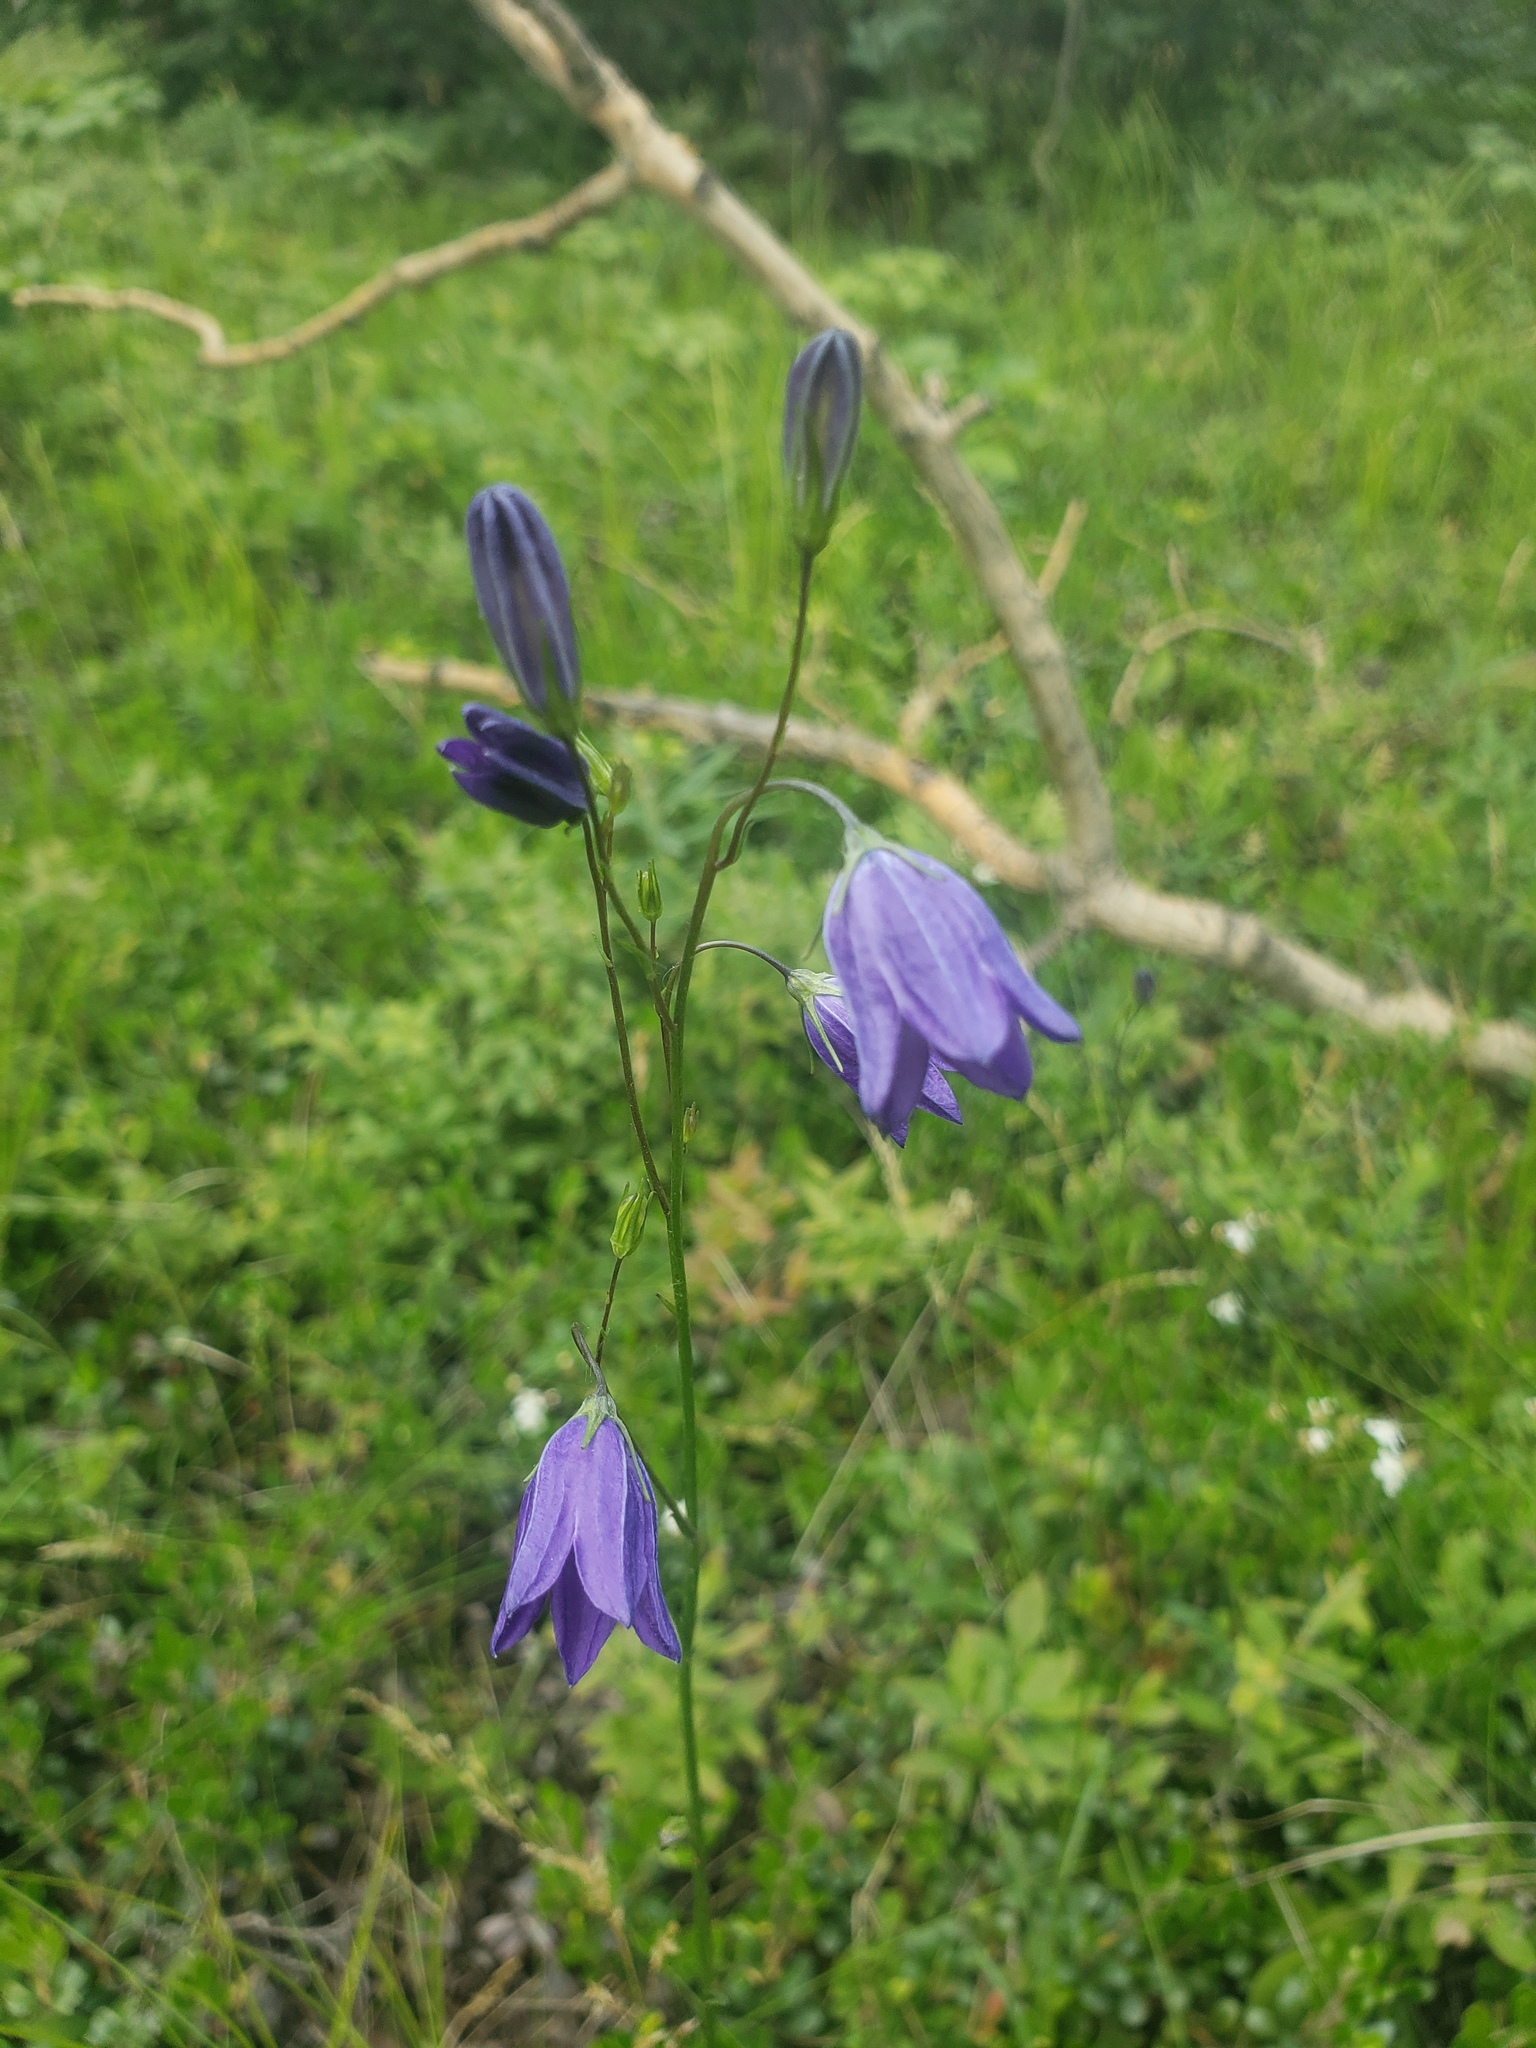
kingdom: Plantae
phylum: Tracheophyta
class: Magnoliopsida
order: Asterales
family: Campanulaceae
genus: Campanula
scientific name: Campanula alaskana
